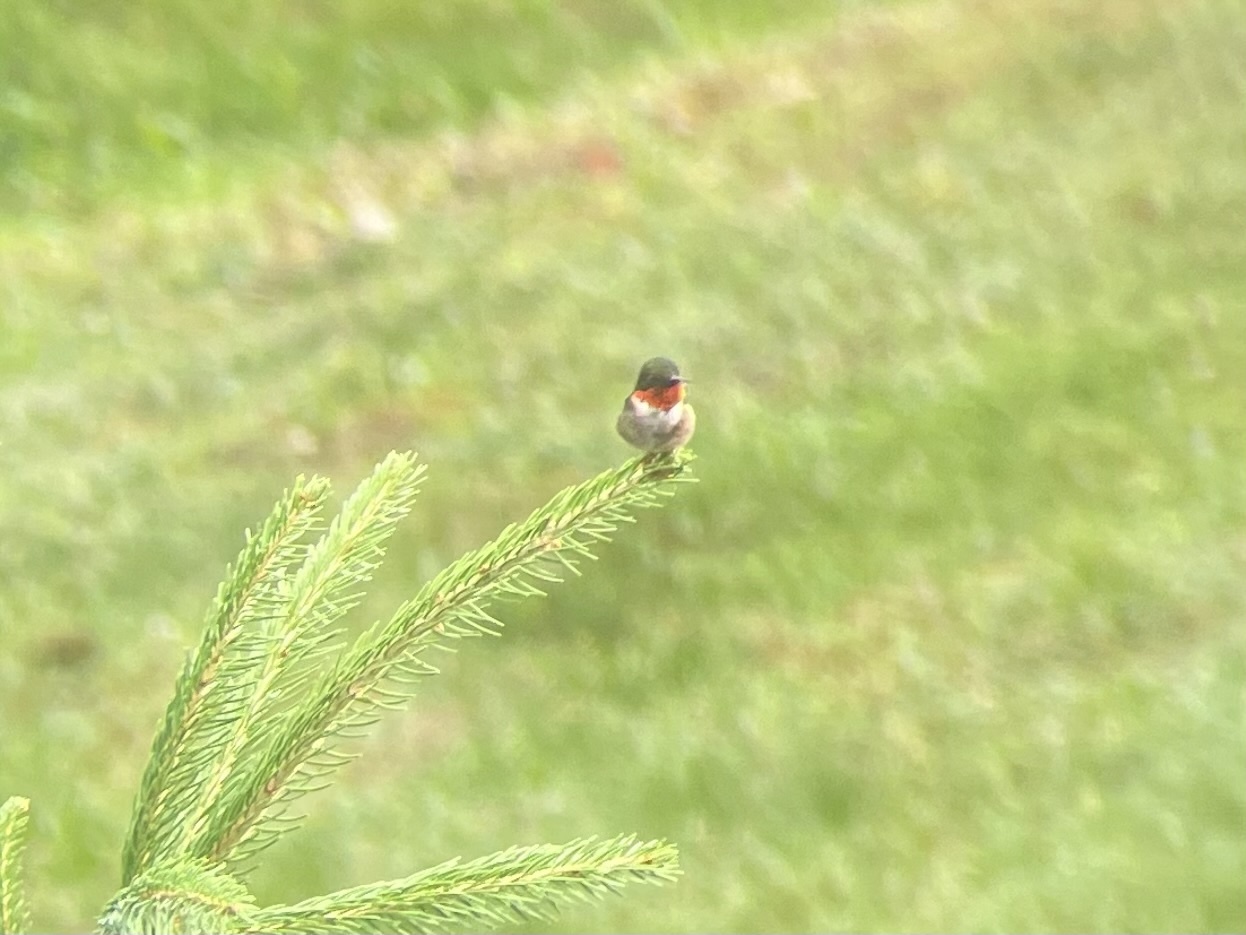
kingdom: Animalia
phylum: Chordata
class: Aves
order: Apodiformes
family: Trochilidae
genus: Archilochus
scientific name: Archilochus colubris
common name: Ruby-throated hummingbird
